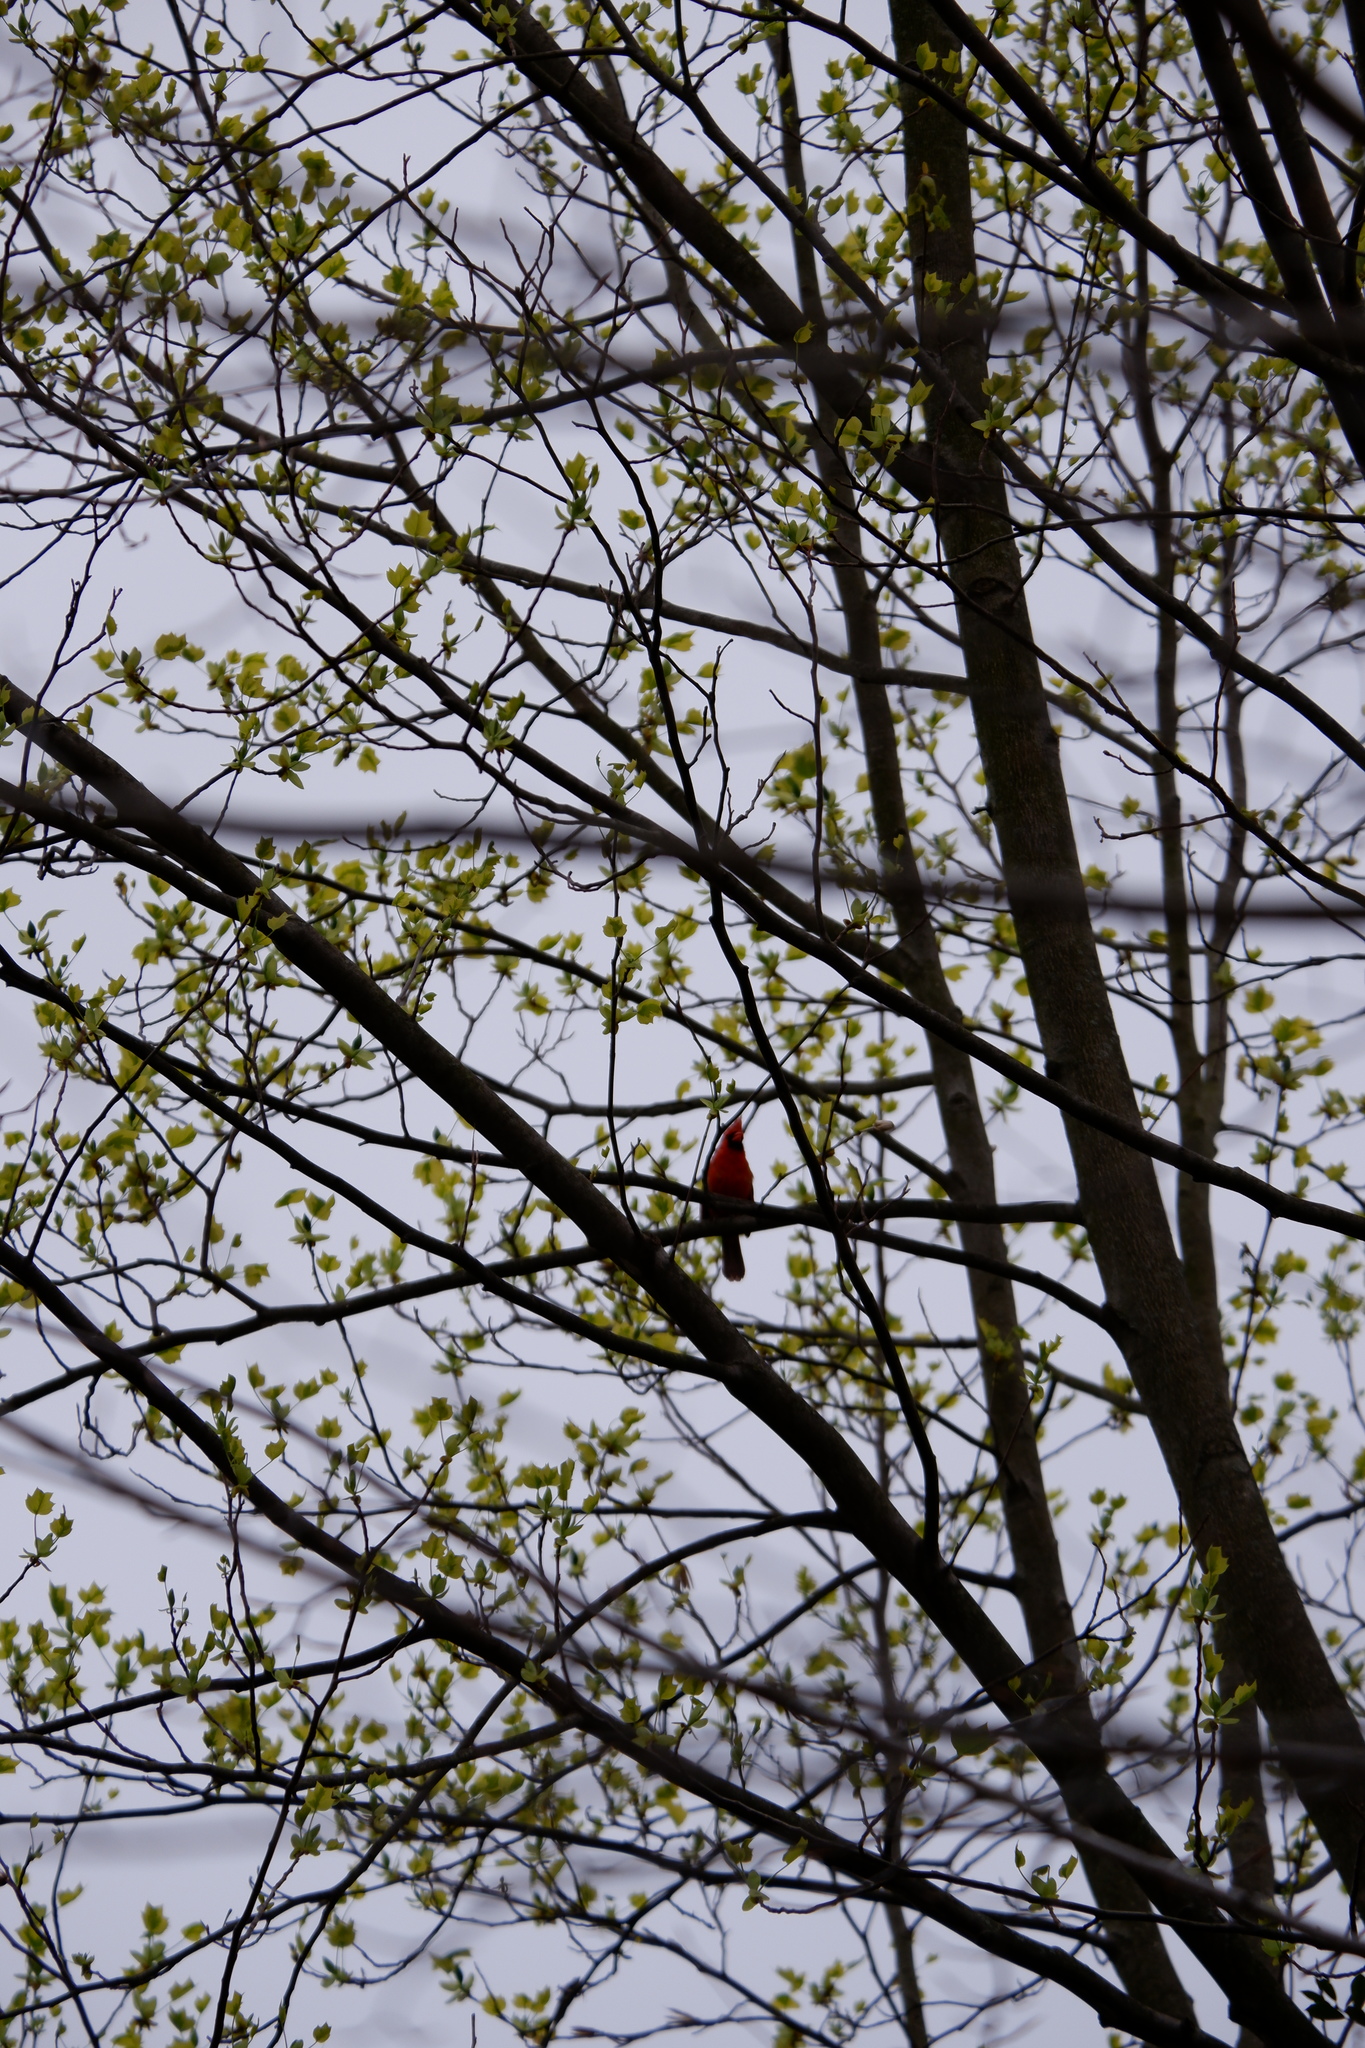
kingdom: Animalia
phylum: Chordata
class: Aves
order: Passeriformes
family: Cardinalidae
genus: Cardinalis
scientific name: Cardinalis cardinalis
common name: Northern cardinal
